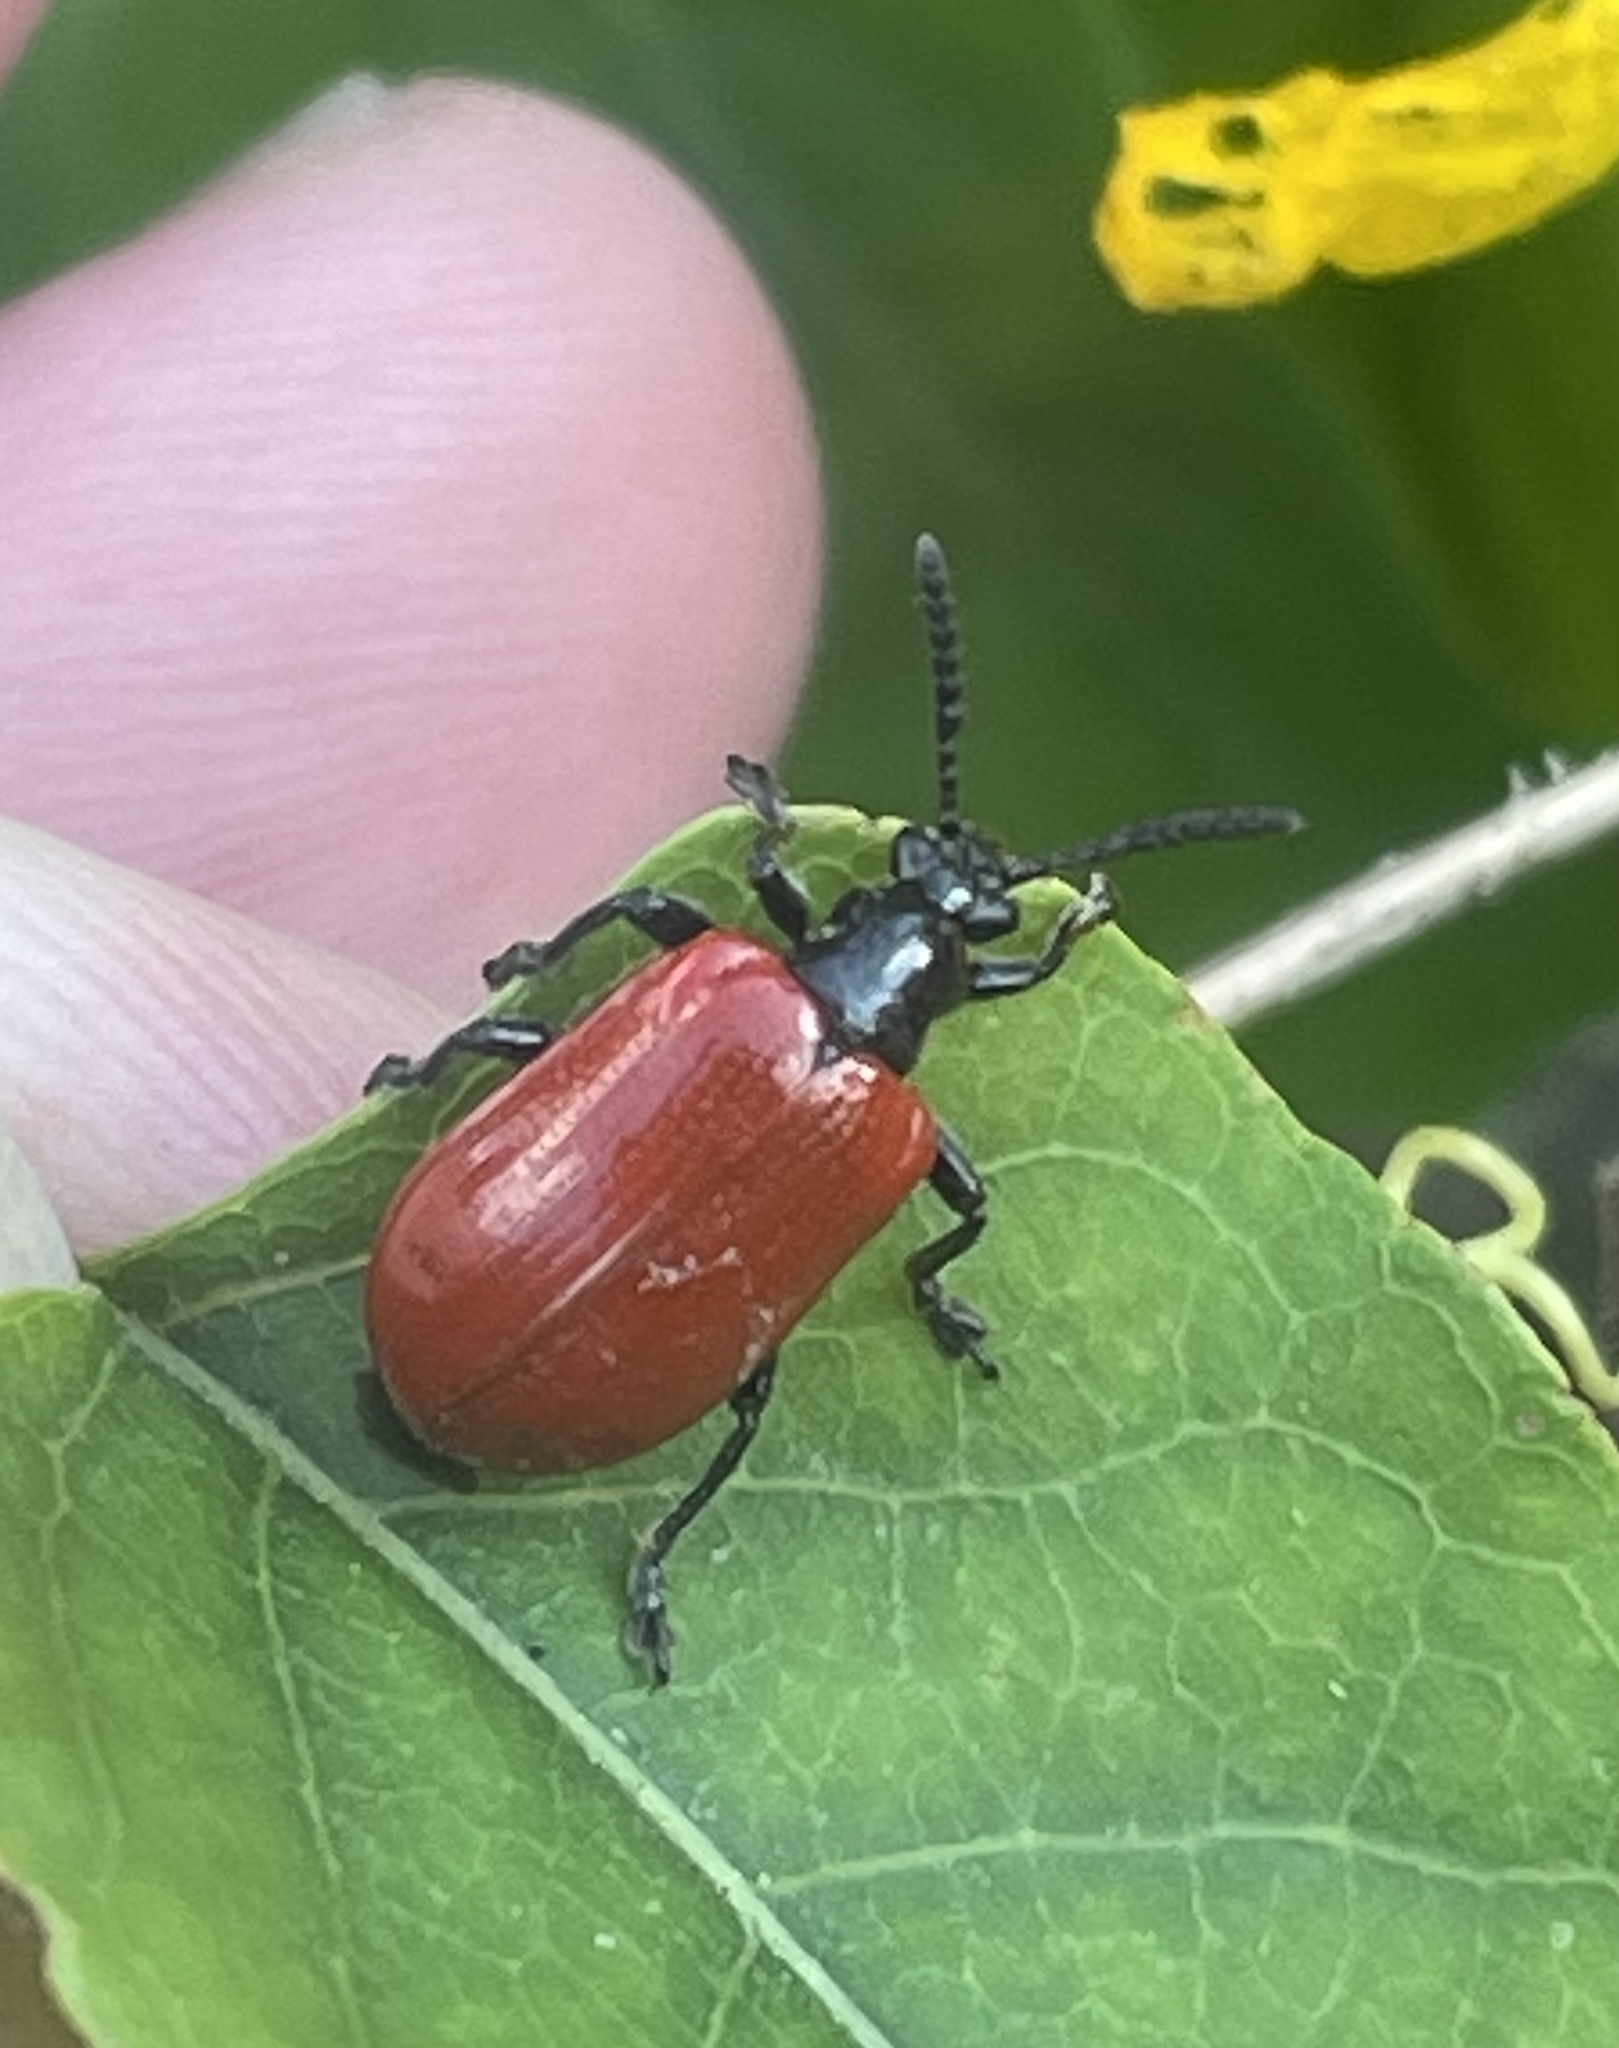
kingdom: Animalia
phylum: Arthropoda
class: Insecta
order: Coleoptera
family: Chrysomelidae
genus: Lilioceris
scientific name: Lilioceris cheni
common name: Leaf beetle
